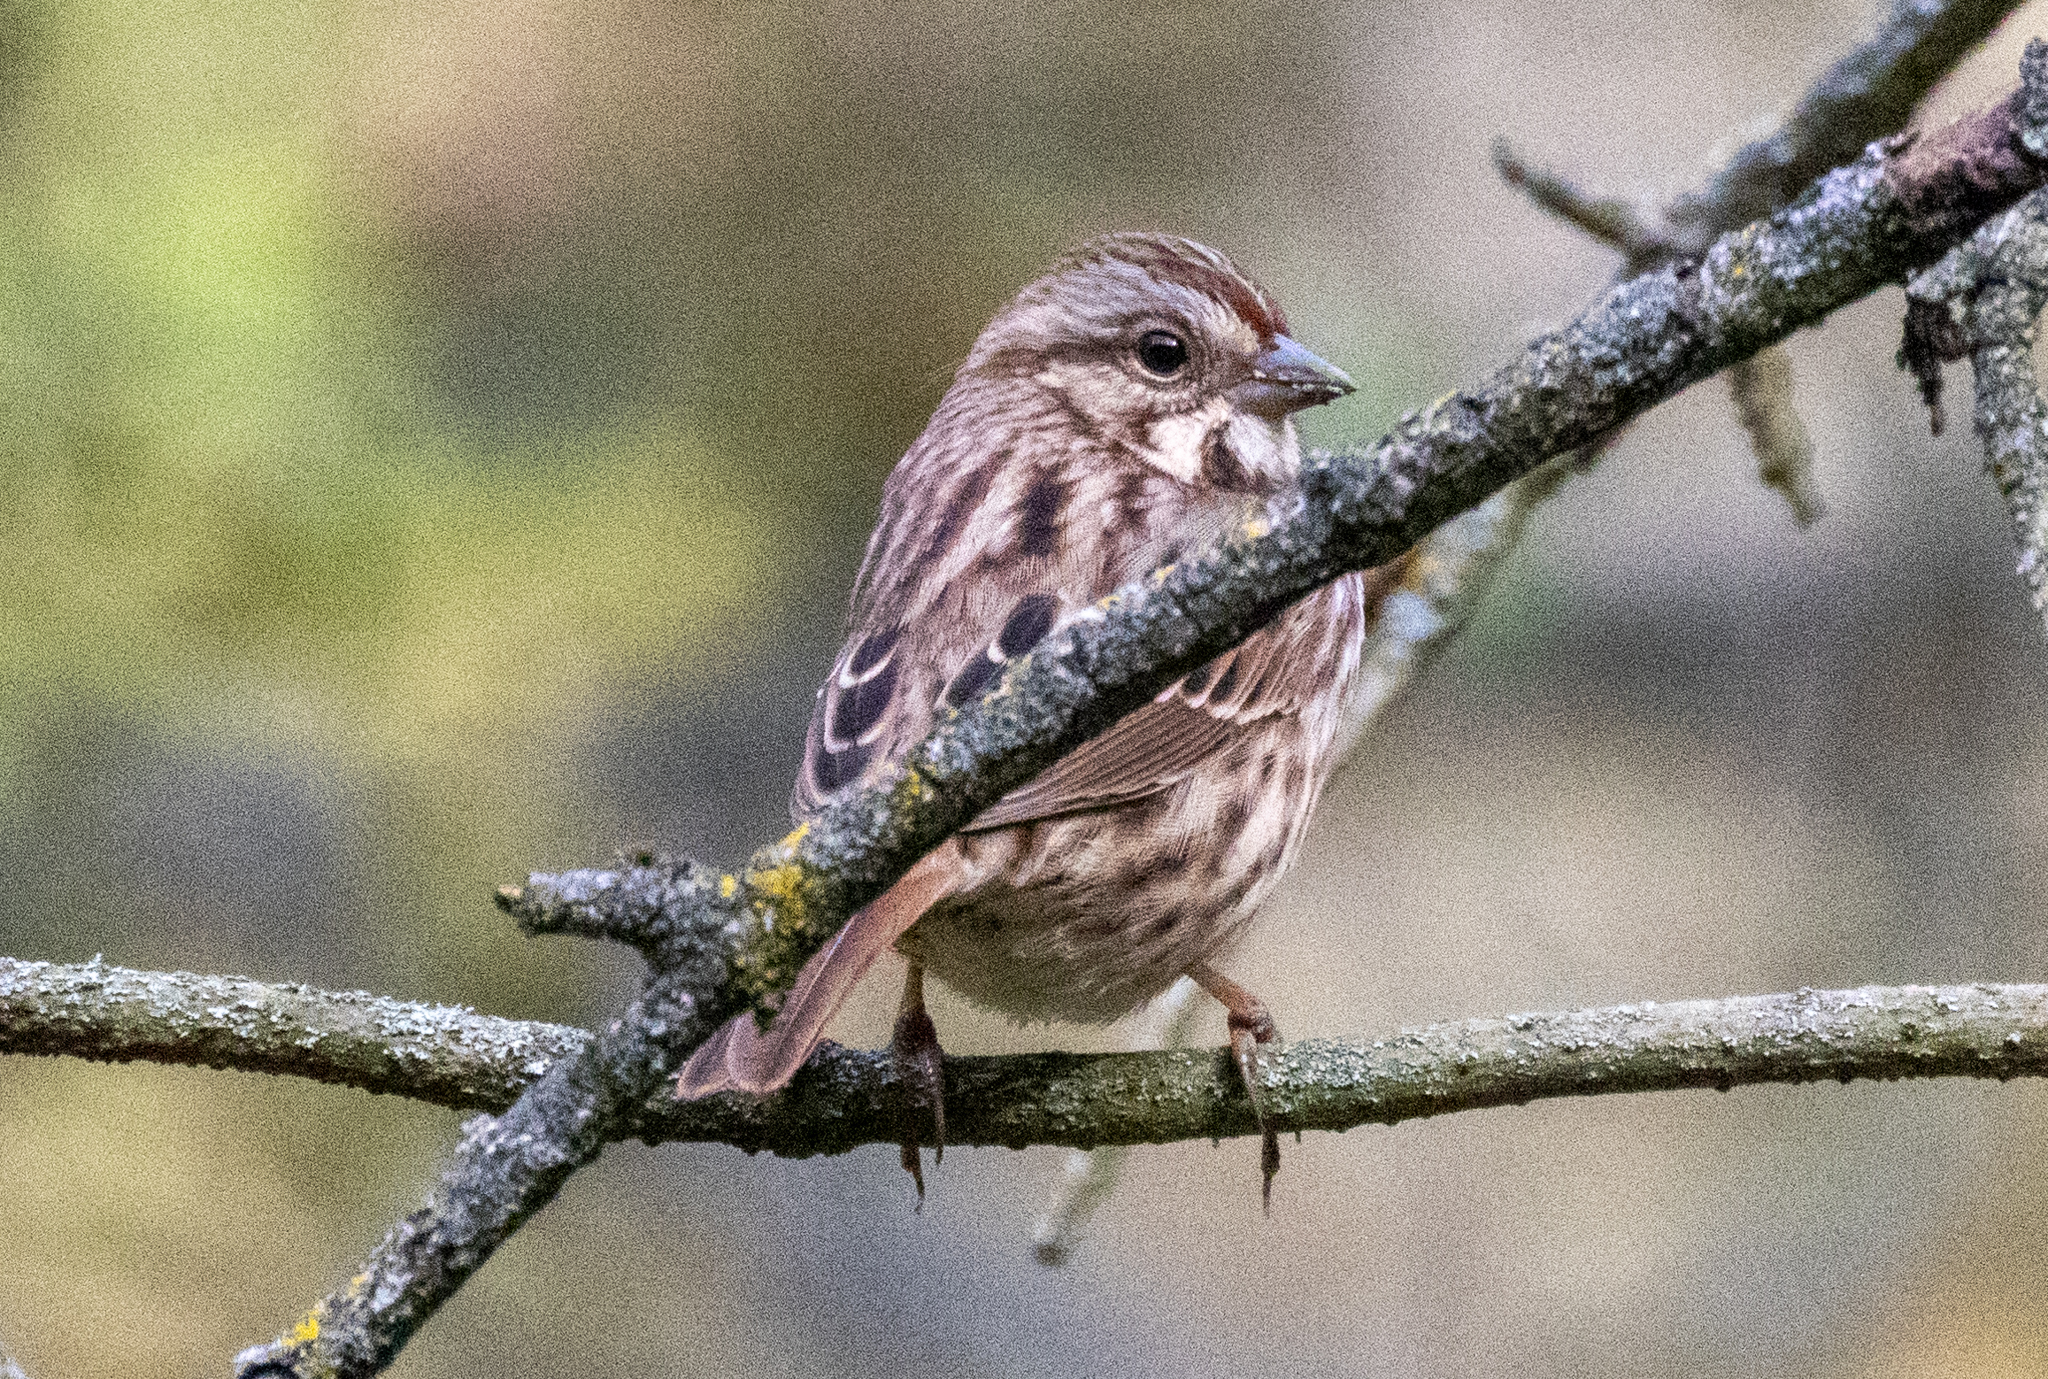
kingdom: Animalia
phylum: Chordata
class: Aves
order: Passeriformes
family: Passerellidae
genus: Melospiza
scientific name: Melospiza melodia
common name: Song sparrow
